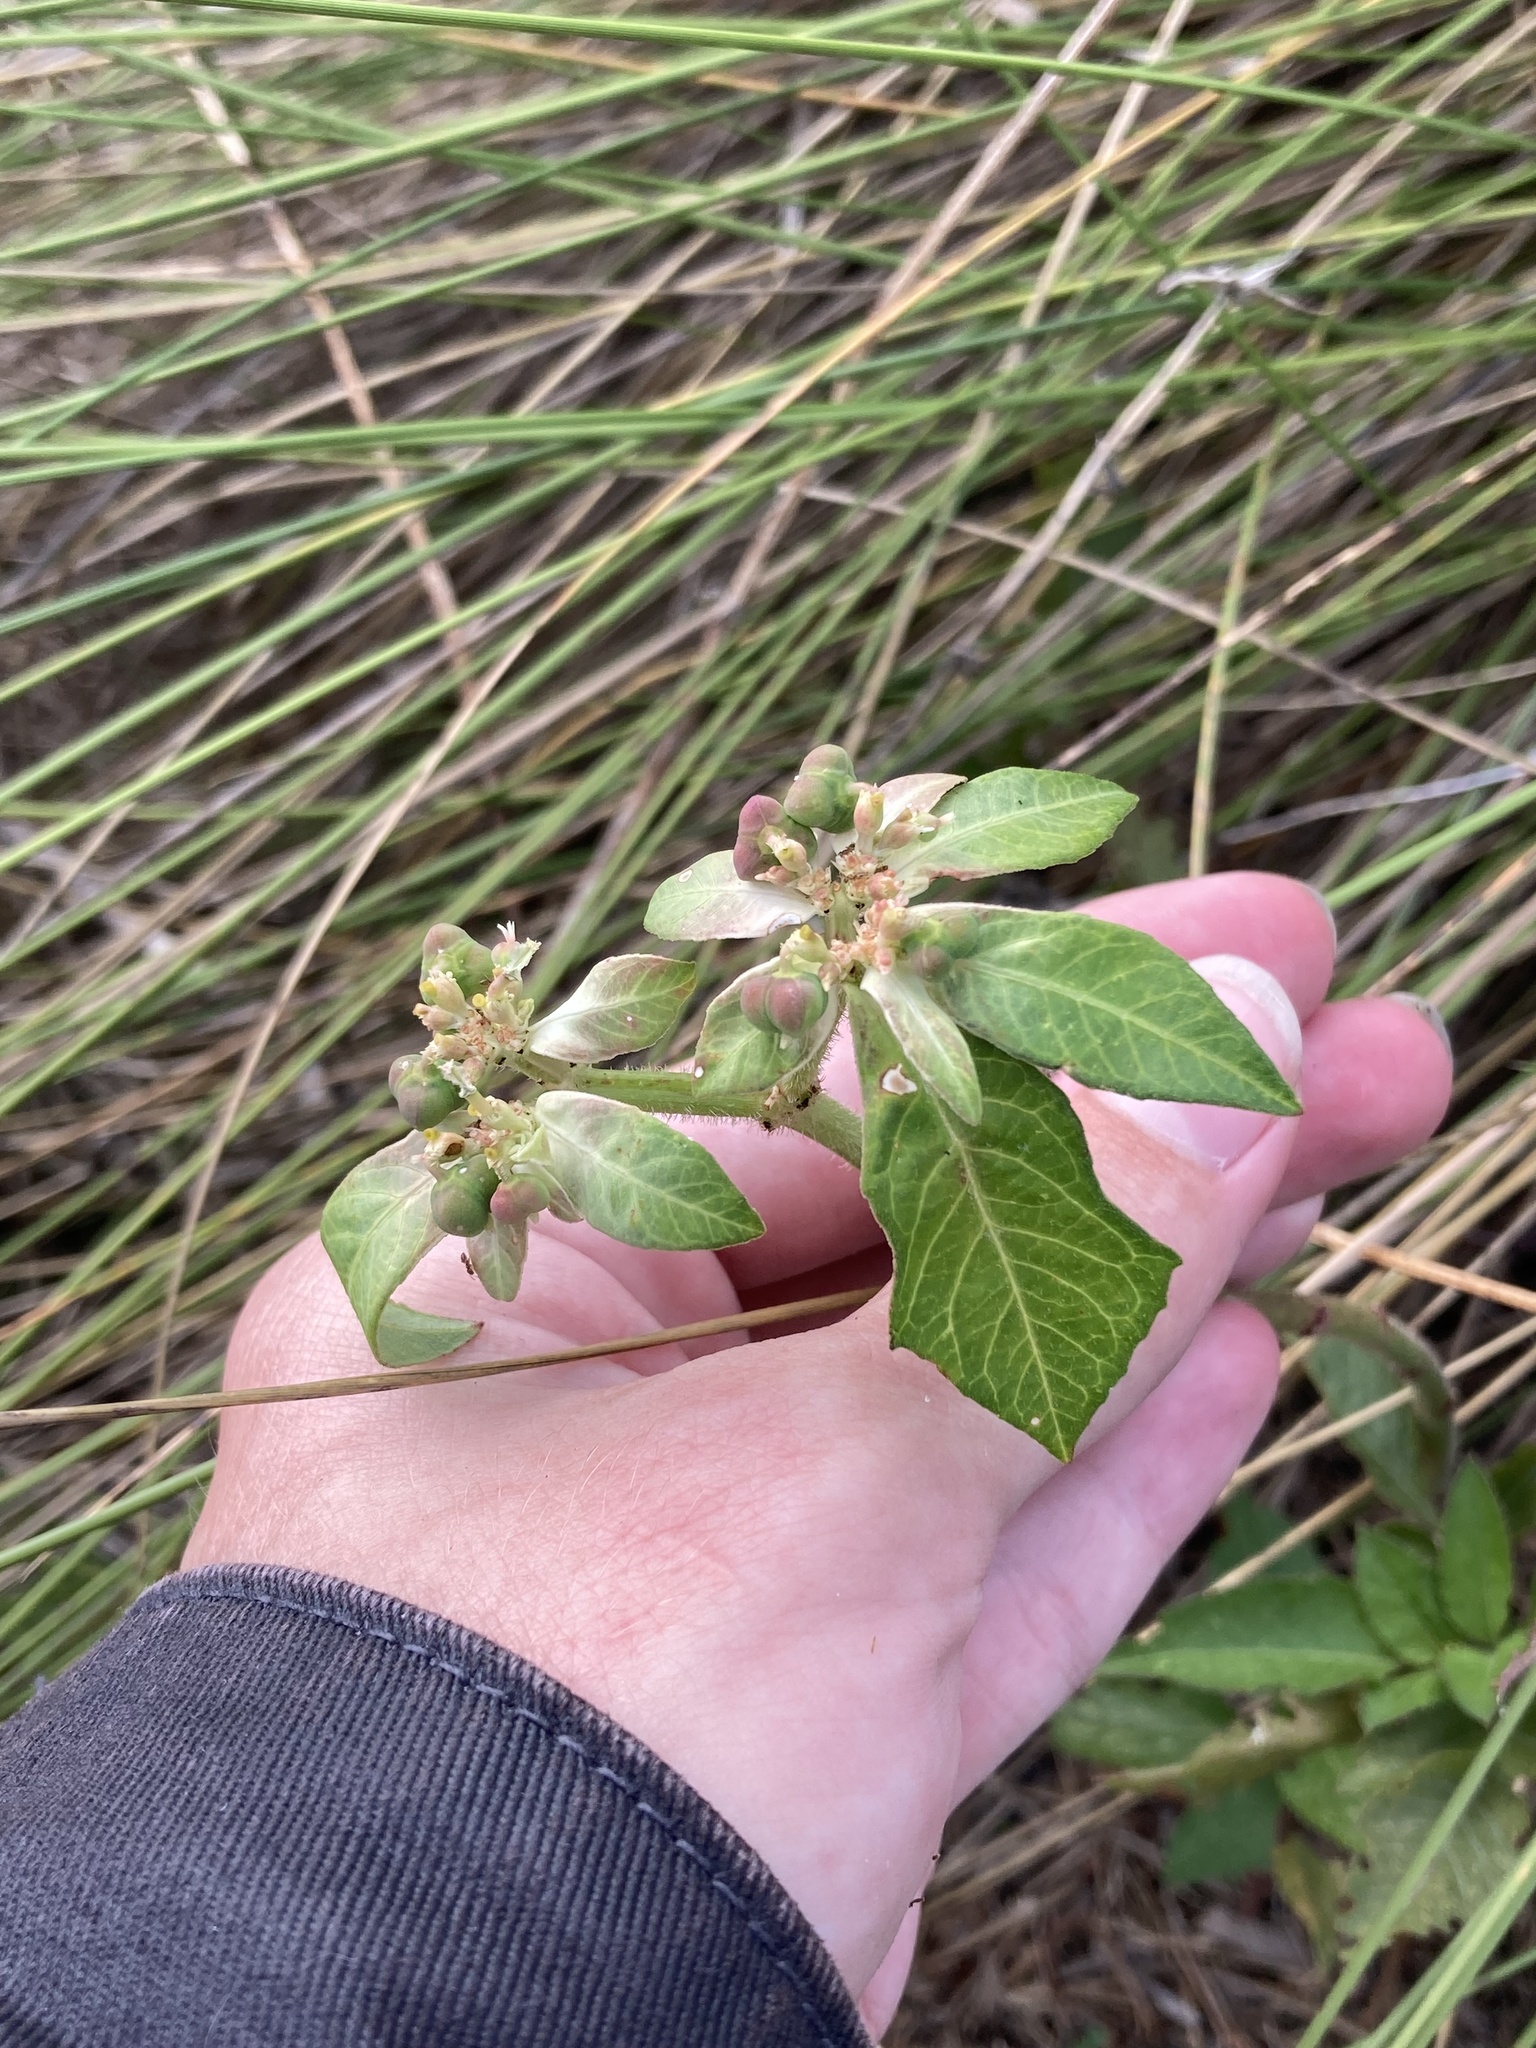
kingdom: Plantae
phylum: Tracheophyta
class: Magnoliopsida
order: Malpighiales
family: Euphorbiaceae
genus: Euphorbia
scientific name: Euphorbia heterophylla
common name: Mexican fireplant
